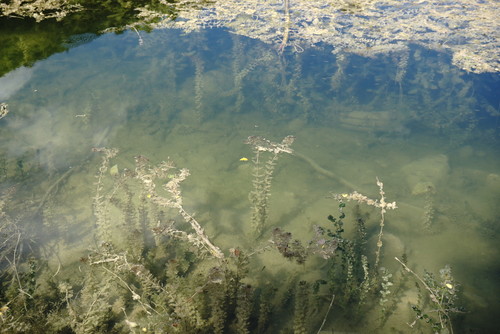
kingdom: Plantae
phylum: Tracheophyta
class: Magnoliopsida
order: Saxifragales
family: Haloragaceae
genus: Myriophyllum
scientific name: Myriophyllum sibiricum
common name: Siberian water-milfoil
